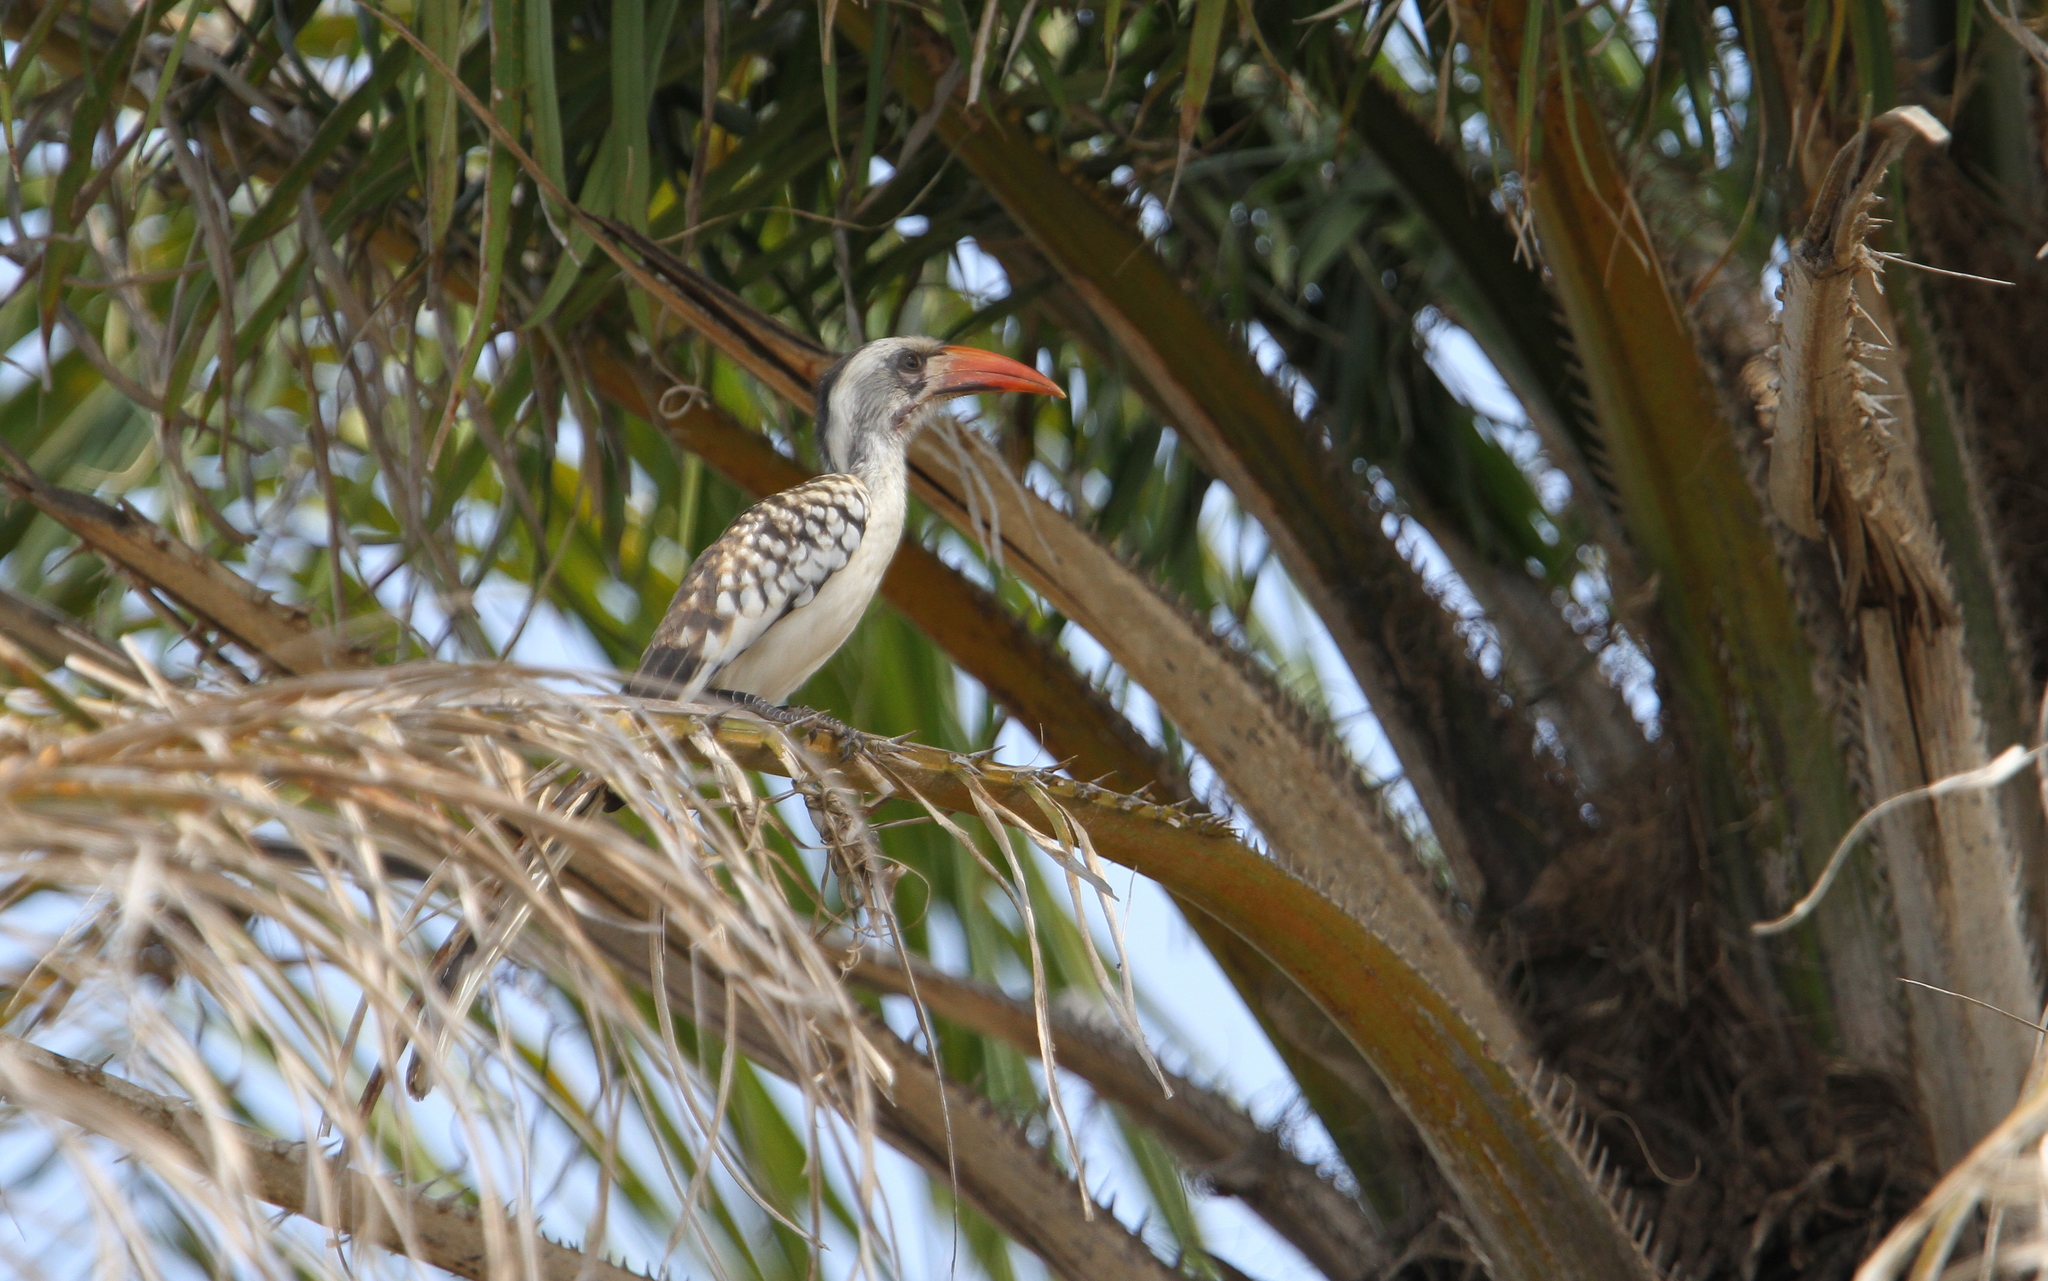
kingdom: Animalia
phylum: Chordata
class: Aves
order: Bucerotiformes
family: Bucerotidae
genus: Tockus
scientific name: Tockus kempi
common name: Western red-billed hornbill
